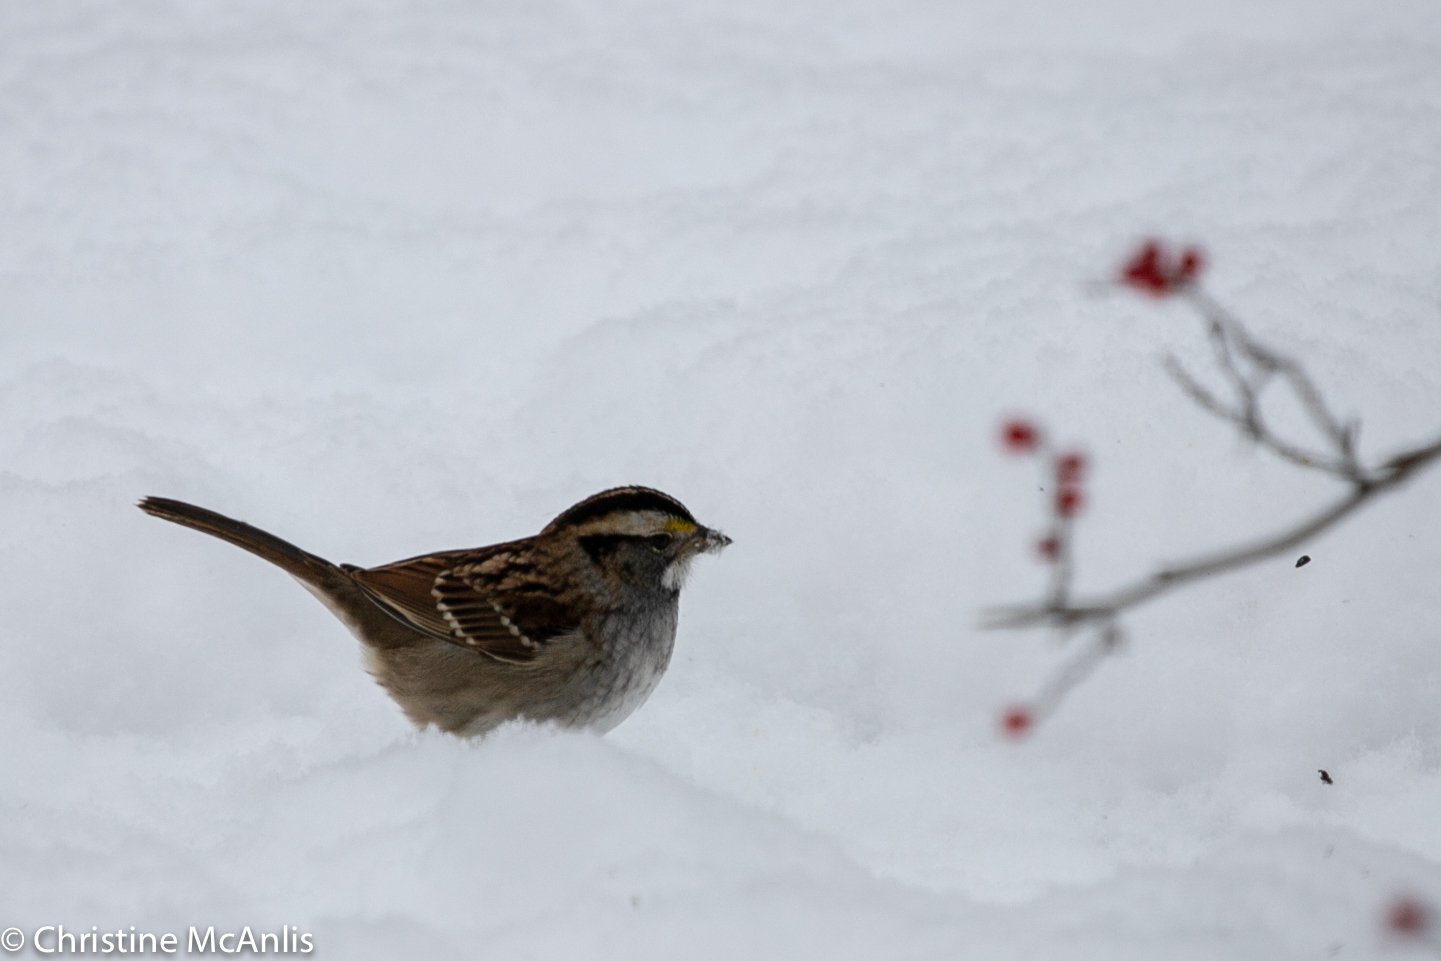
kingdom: Animalia
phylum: Chordata
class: Aves
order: Passeriformes
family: Passerellidae
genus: Zonotrichia
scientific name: Zonotrichia albicollis
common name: White-throated sparrow
